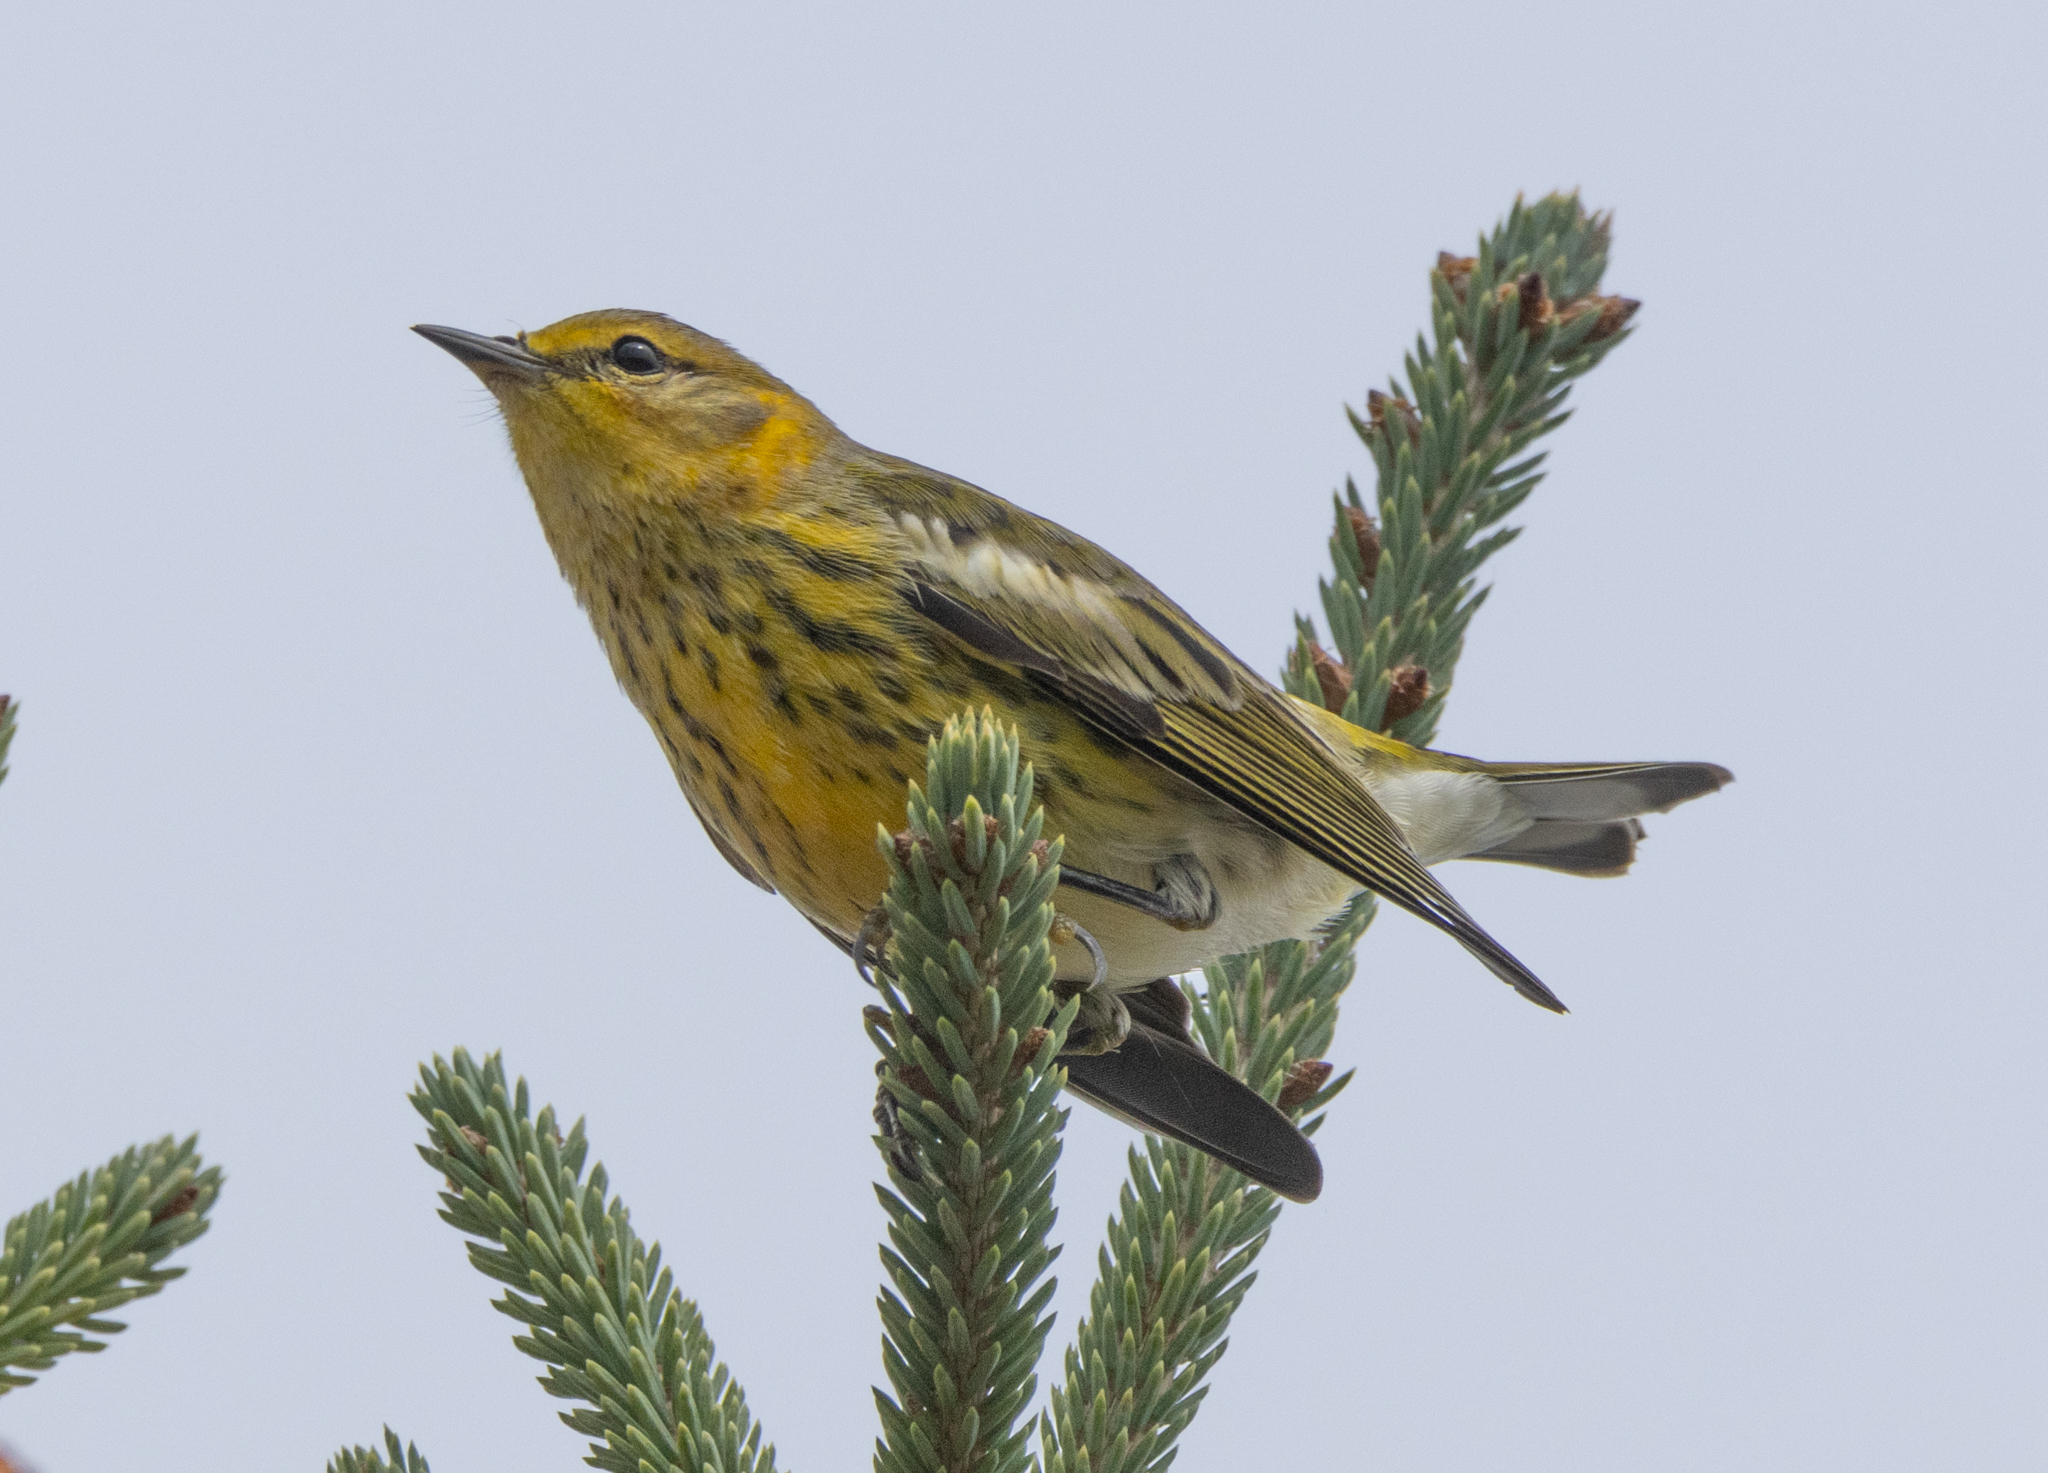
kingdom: Animalia
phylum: Chordata
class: Aves
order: Passeriformes
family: Parulidae
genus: Setophaga
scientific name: Setophaga tigrina
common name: Cape may warbler
